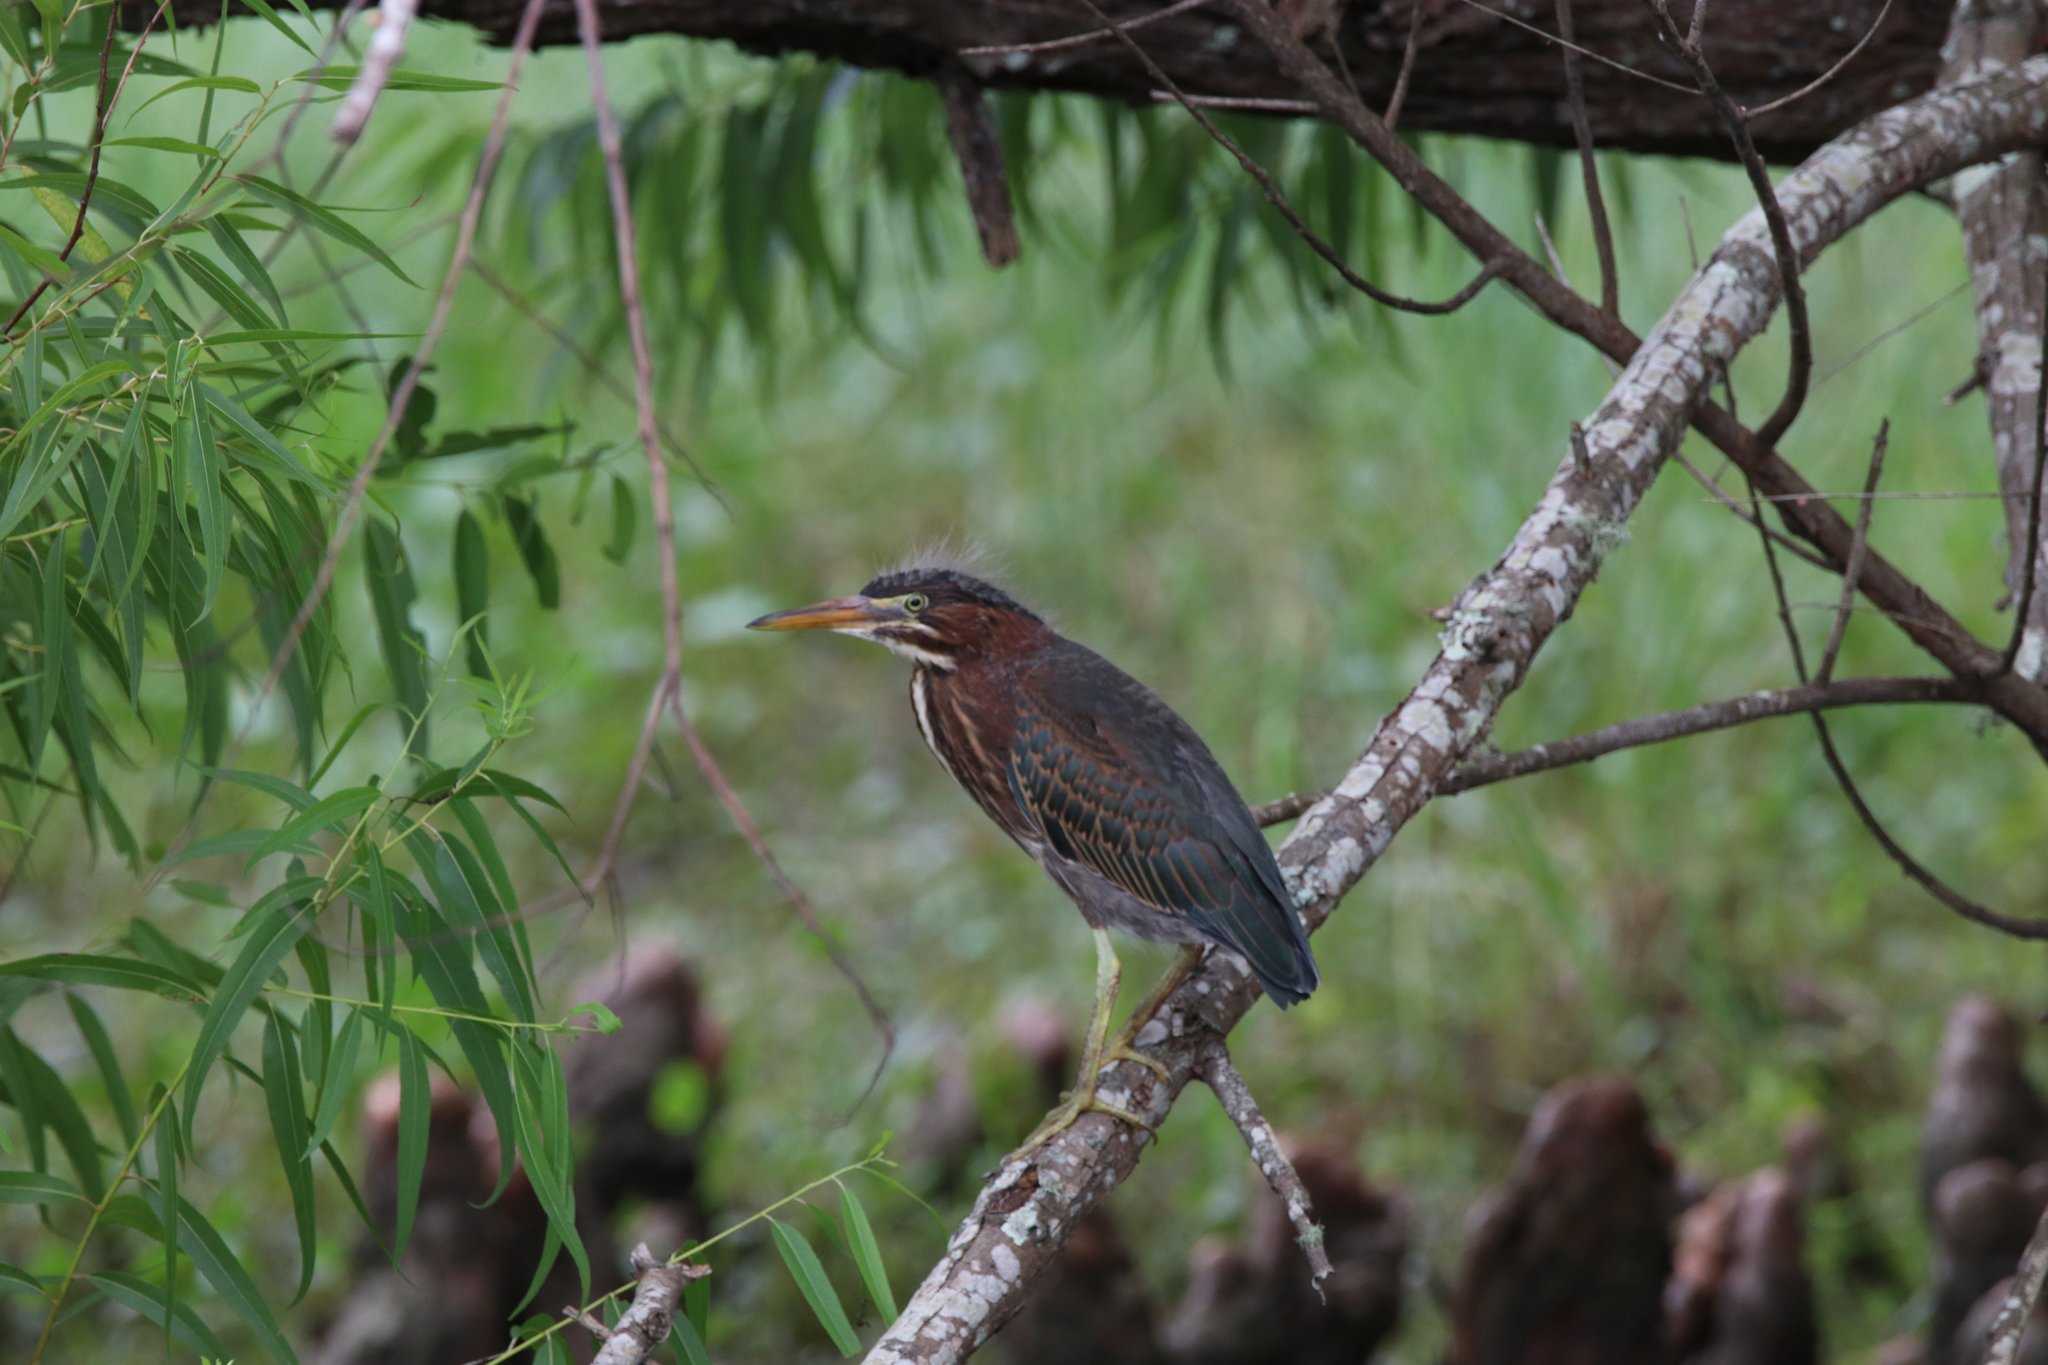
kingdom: Animalia
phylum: Chordata
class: Aves
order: Pelecaniformes
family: Ardeidae
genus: Butorides
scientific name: Butorides virescens
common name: Green heron
